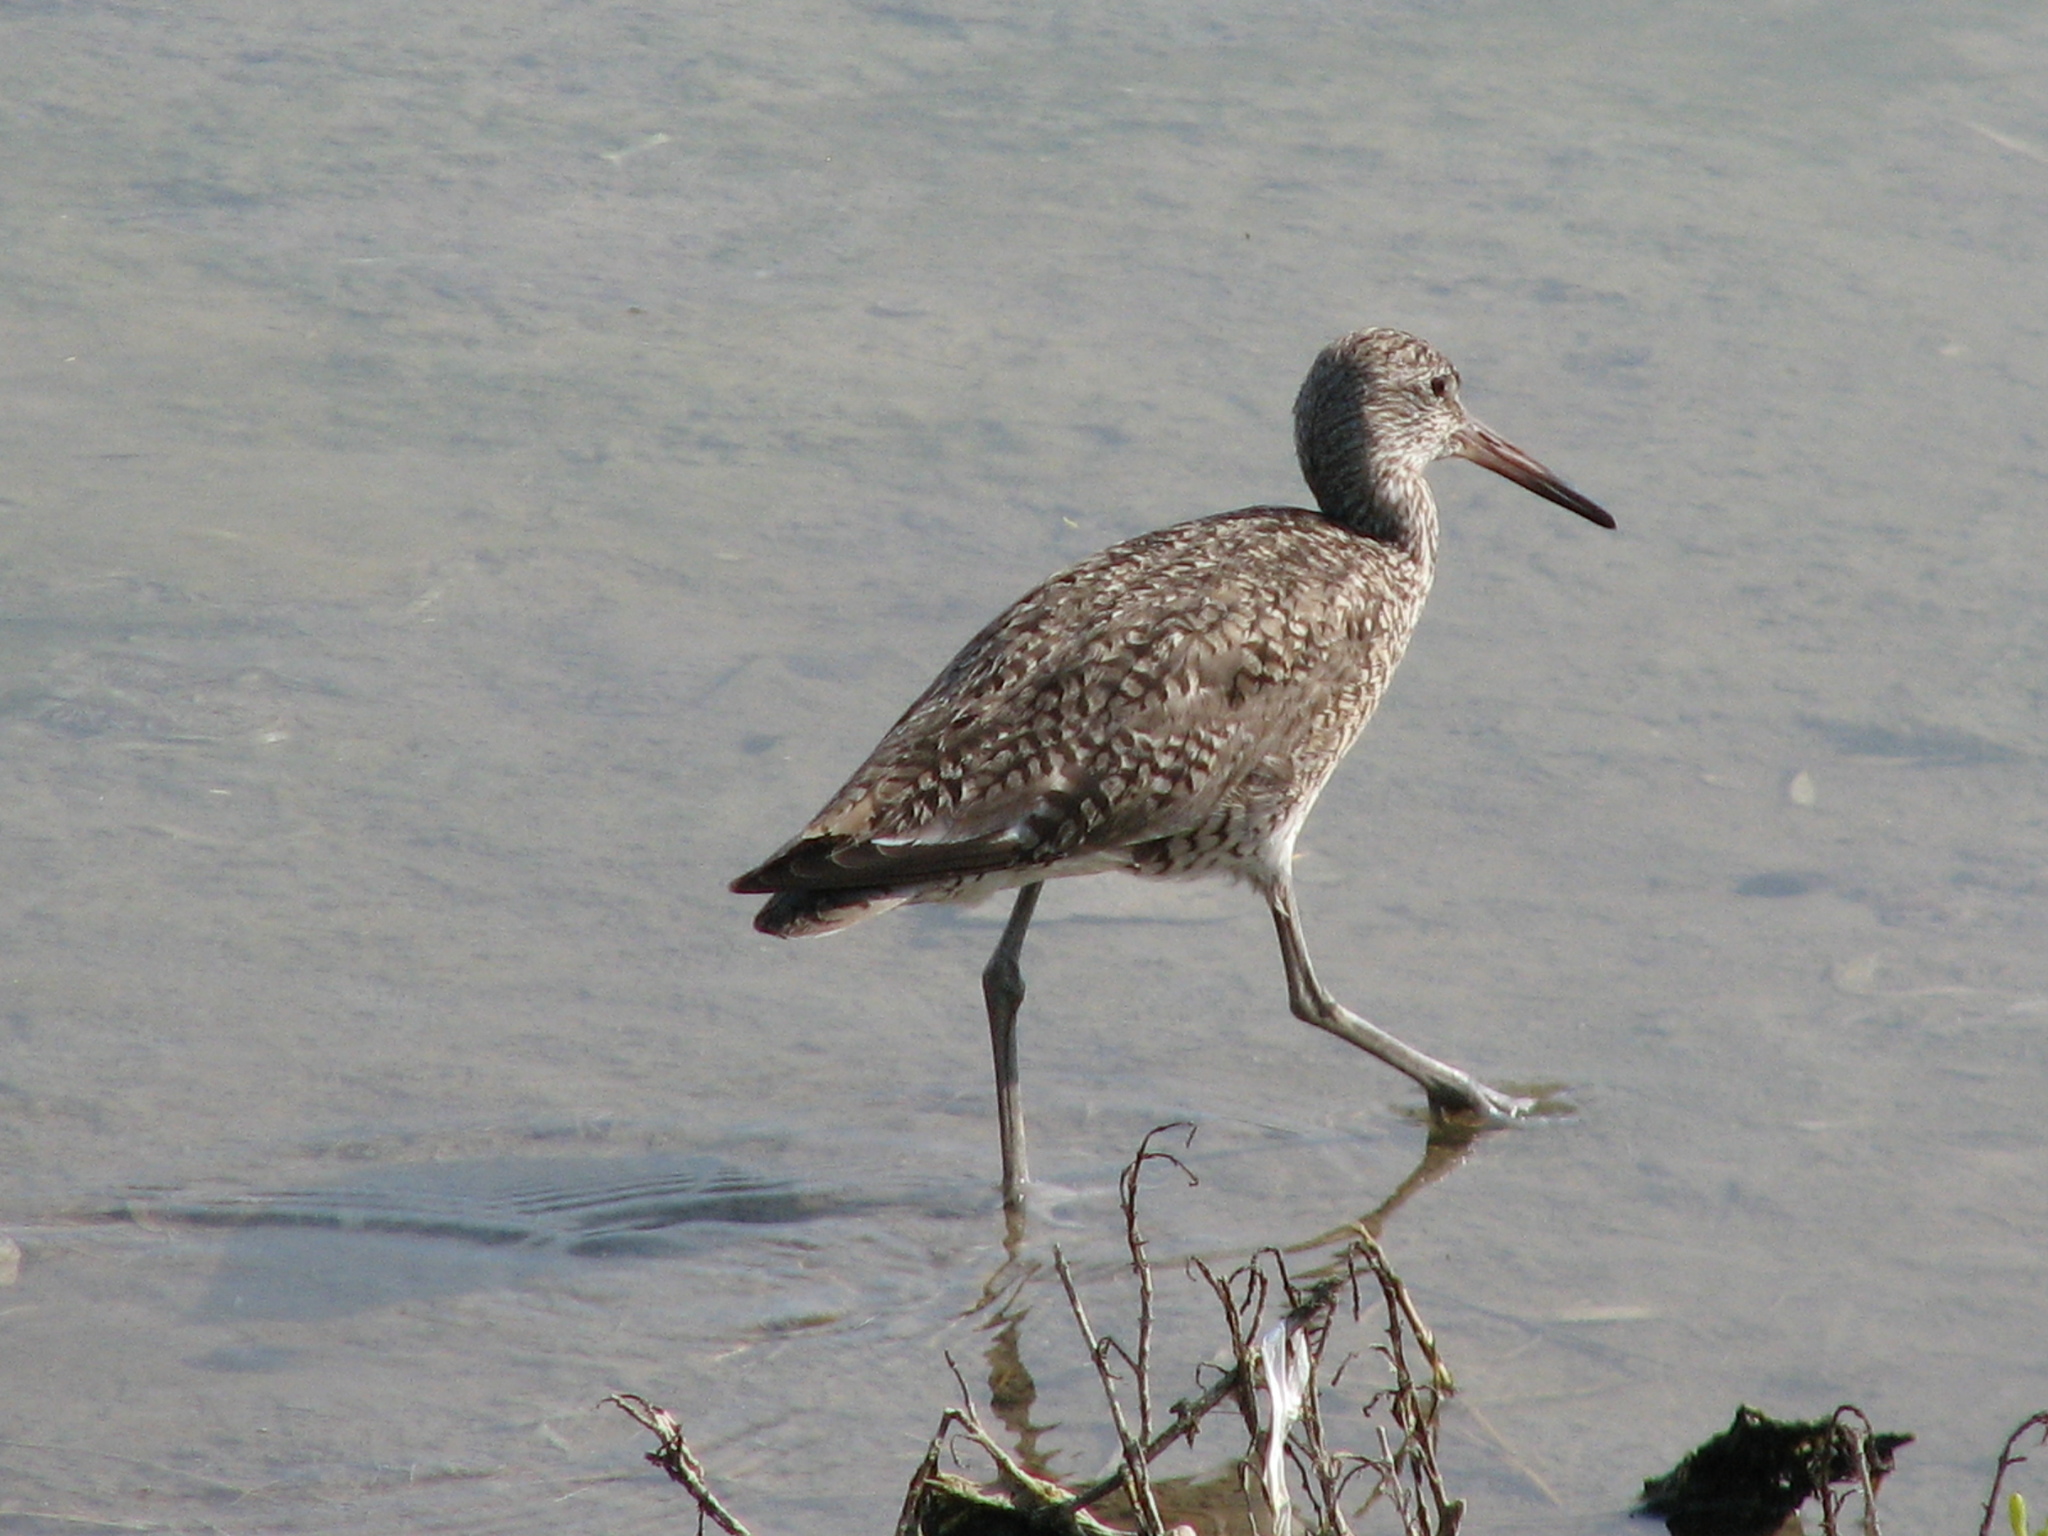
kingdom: Animalia
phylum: Chordata
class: Aves
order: Charadriiformes
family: Scolopacidae
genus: Tringa
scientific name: Tringa semipalmata
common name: Willet
